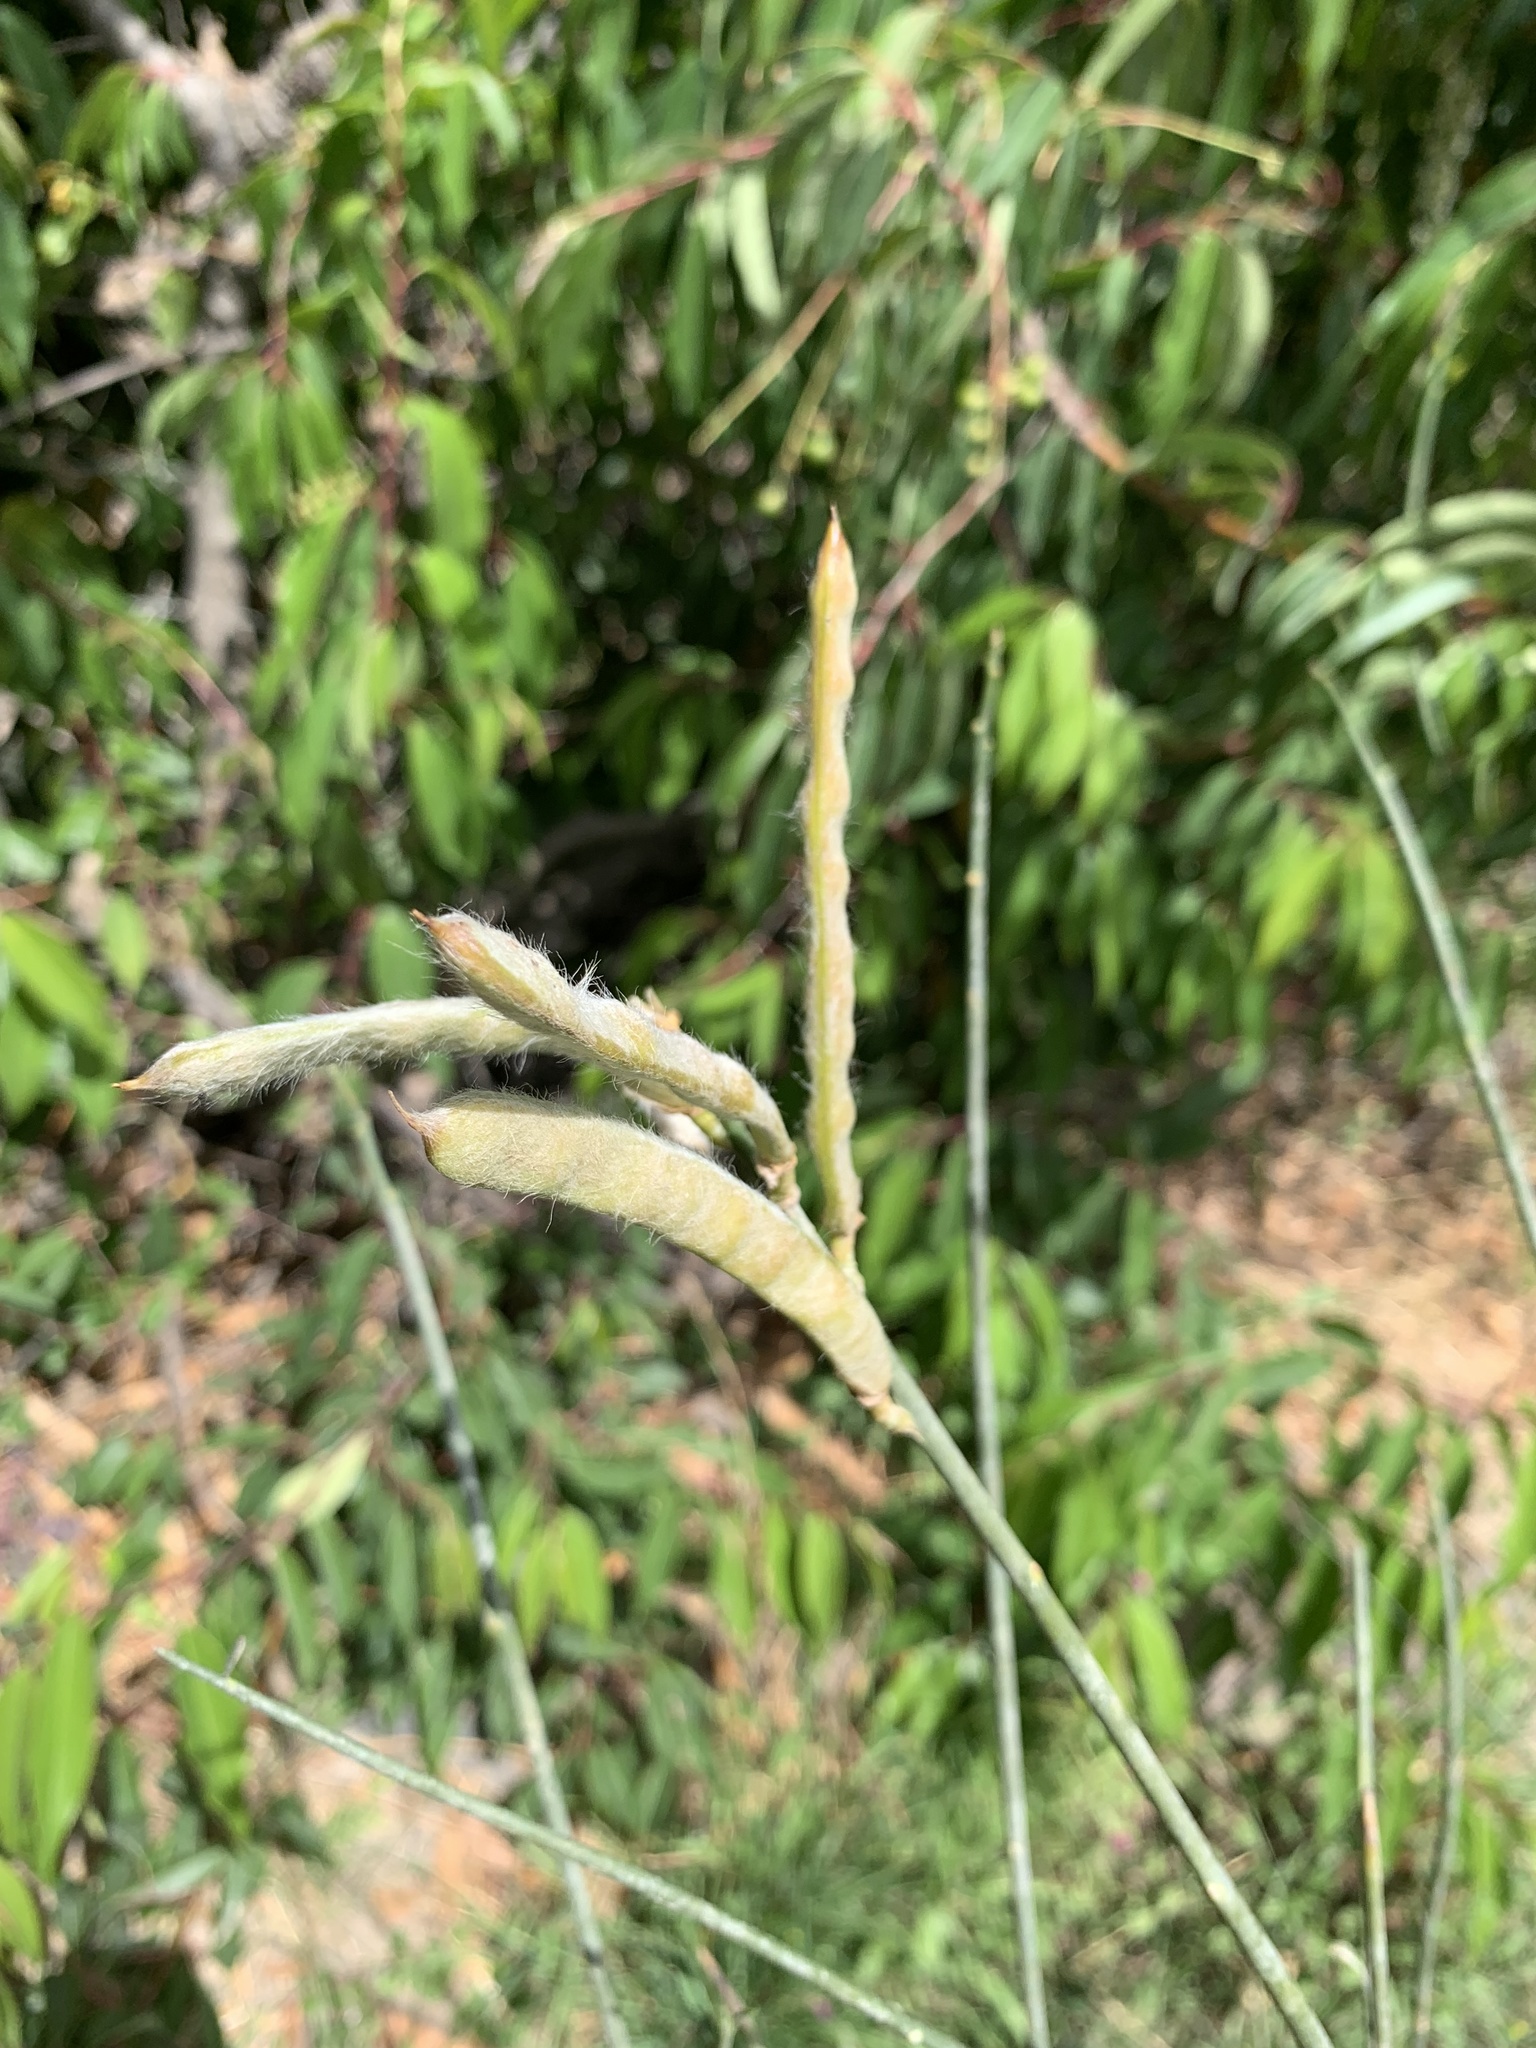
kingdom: Plantae
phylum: Tracheophyta
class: Magnoliopsida
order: Fabales
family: Fabaceae
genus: Spartium
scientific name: Spartium junceum
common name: Spanish broom
